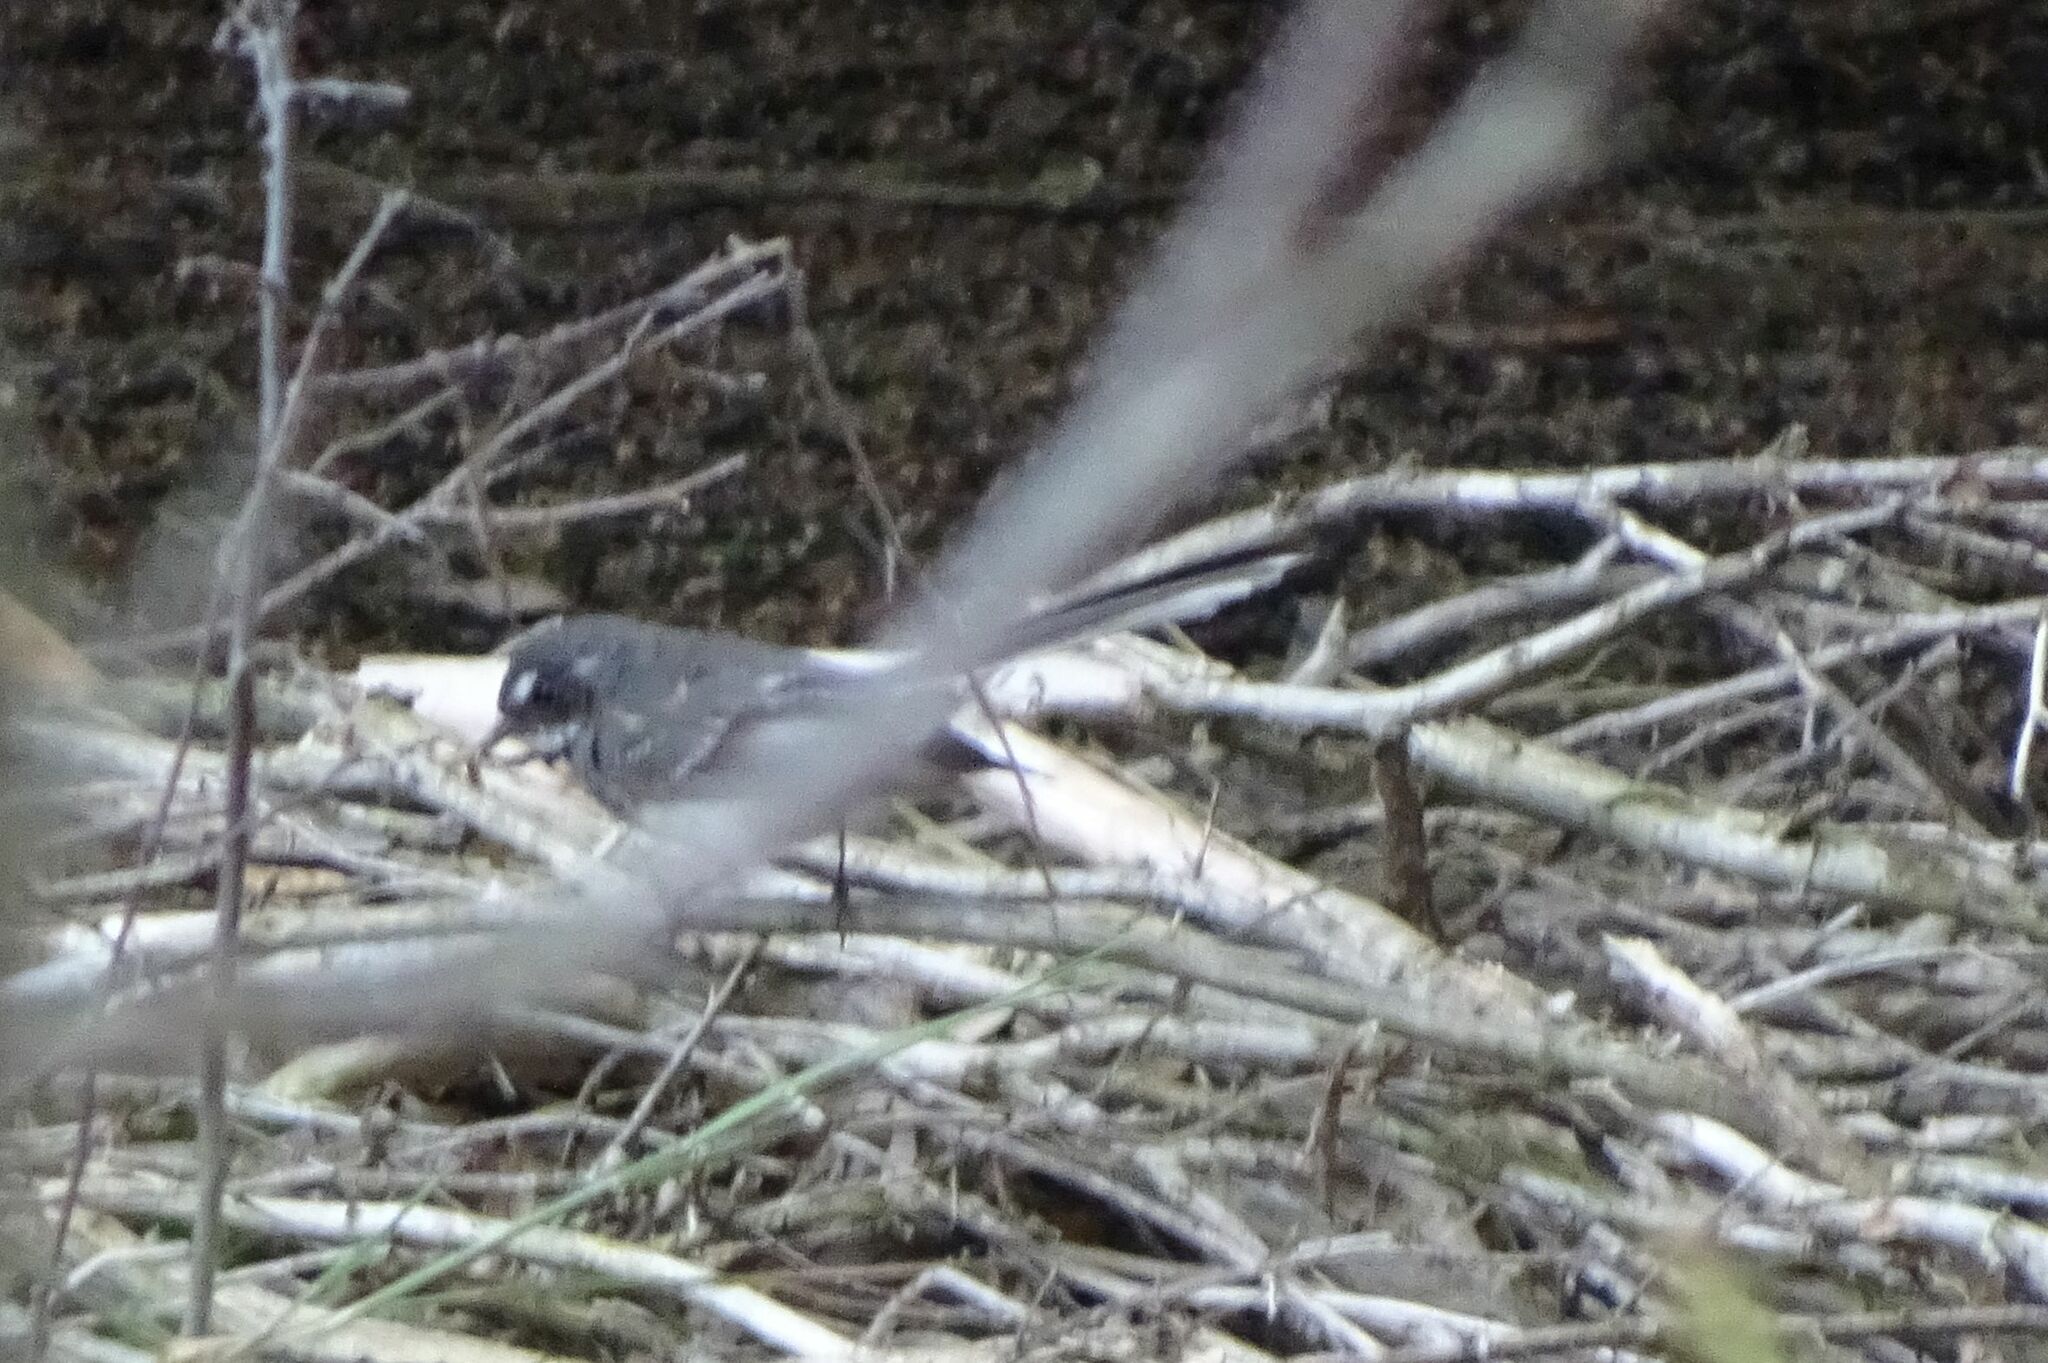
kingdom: Animalia
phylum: Chordata
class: Aves
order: Passeriformes
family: Rhipiduridae
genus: Rhipidura
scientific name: Rhipidura albiscapa
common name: Grey fantail
